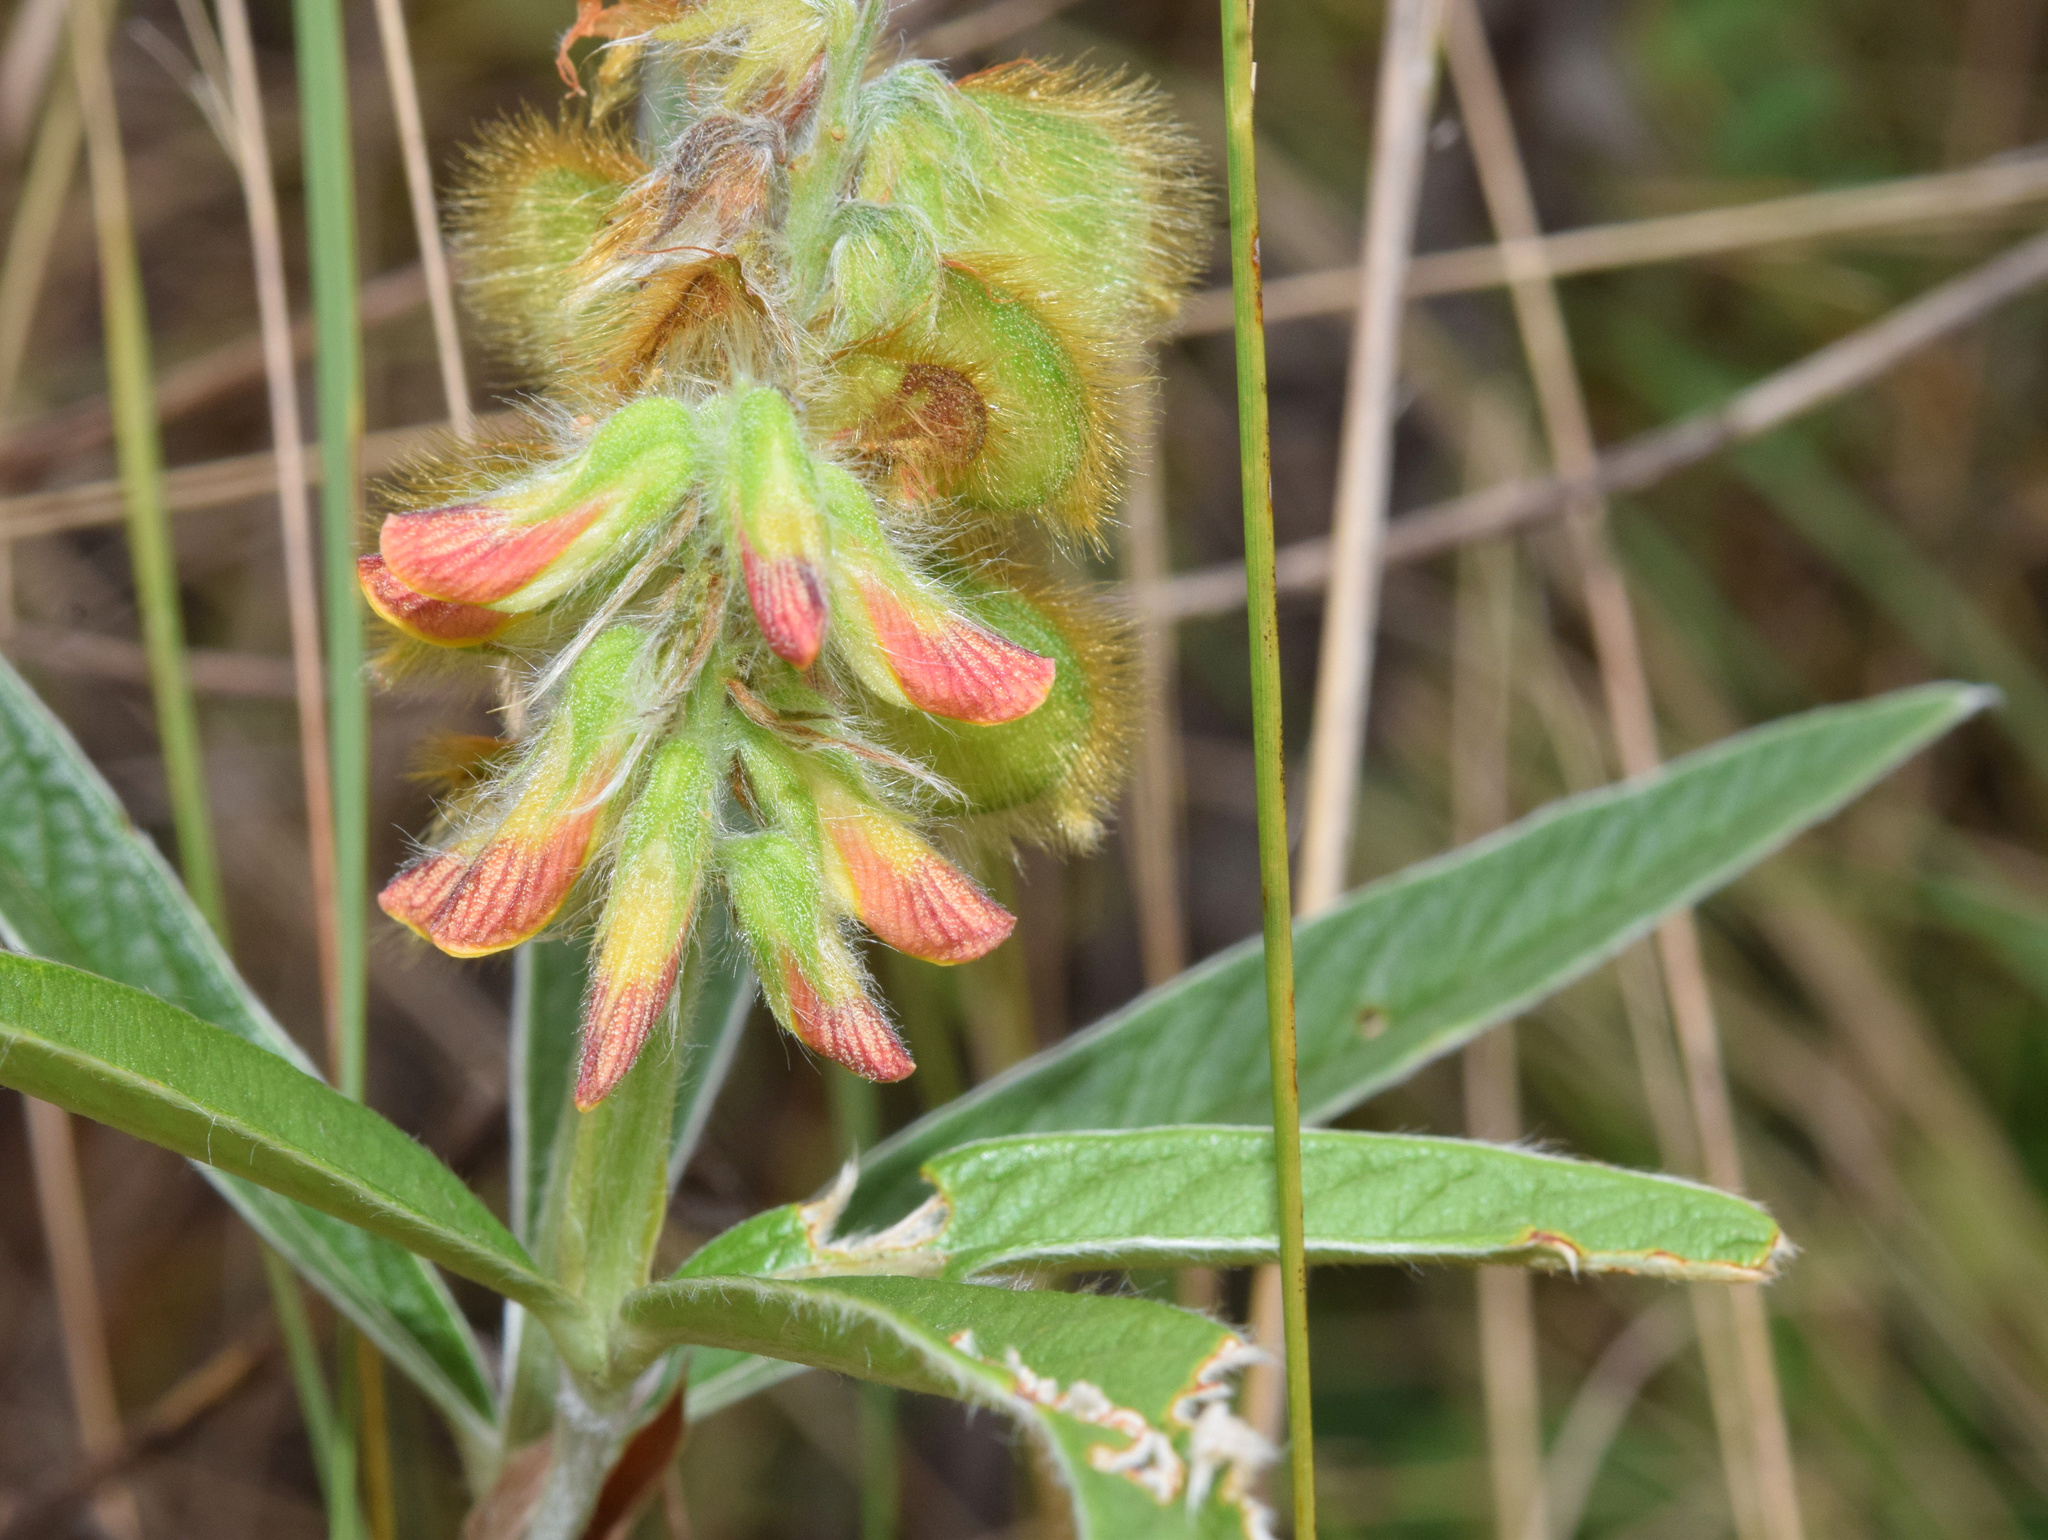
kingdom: Plantae
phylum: Tracheophyta
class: Magnoliopsida
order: Fabales
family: Fabaceae
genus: Eriosema
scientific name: Eriosema salignum
